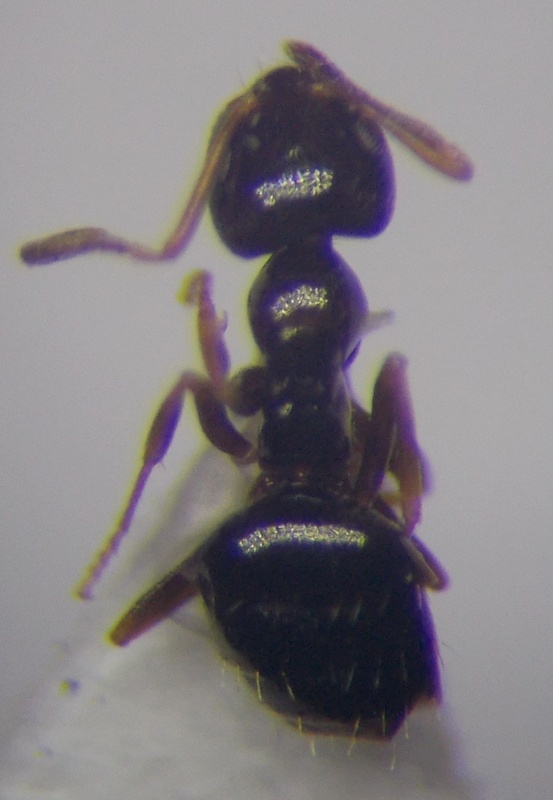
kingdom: Animalia
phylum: Arthropoda
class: Insecta
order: Hymenoptera
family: Formicidae
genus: Plagiolepis
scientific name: Plagiolepis pallescens
